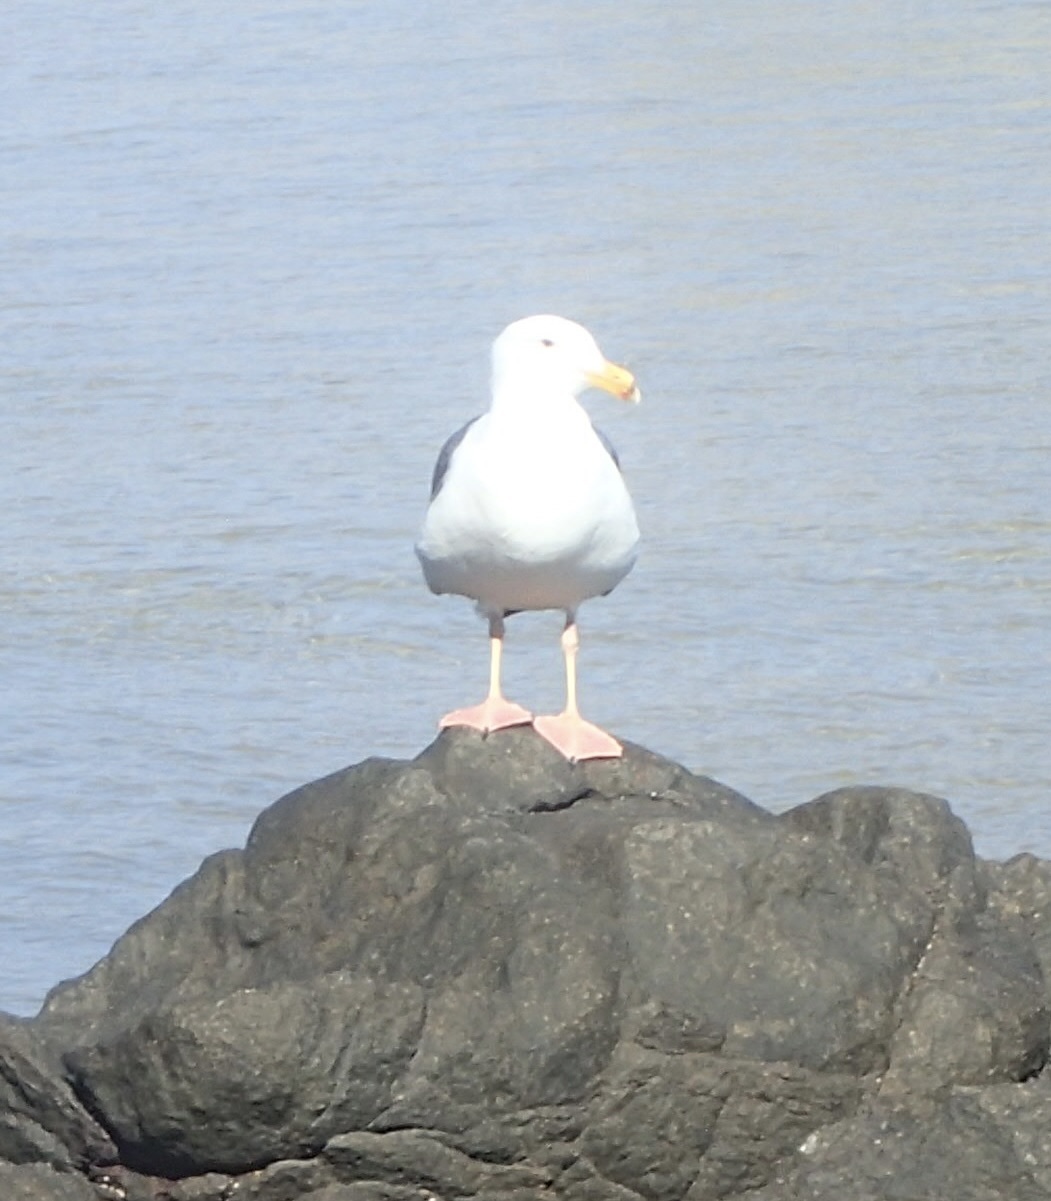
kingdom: Animalia
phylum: Chordata
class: Aves
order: Charadriiformes
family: Laridae
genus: Larus
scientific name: Larus occidentalis
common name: Western gull
